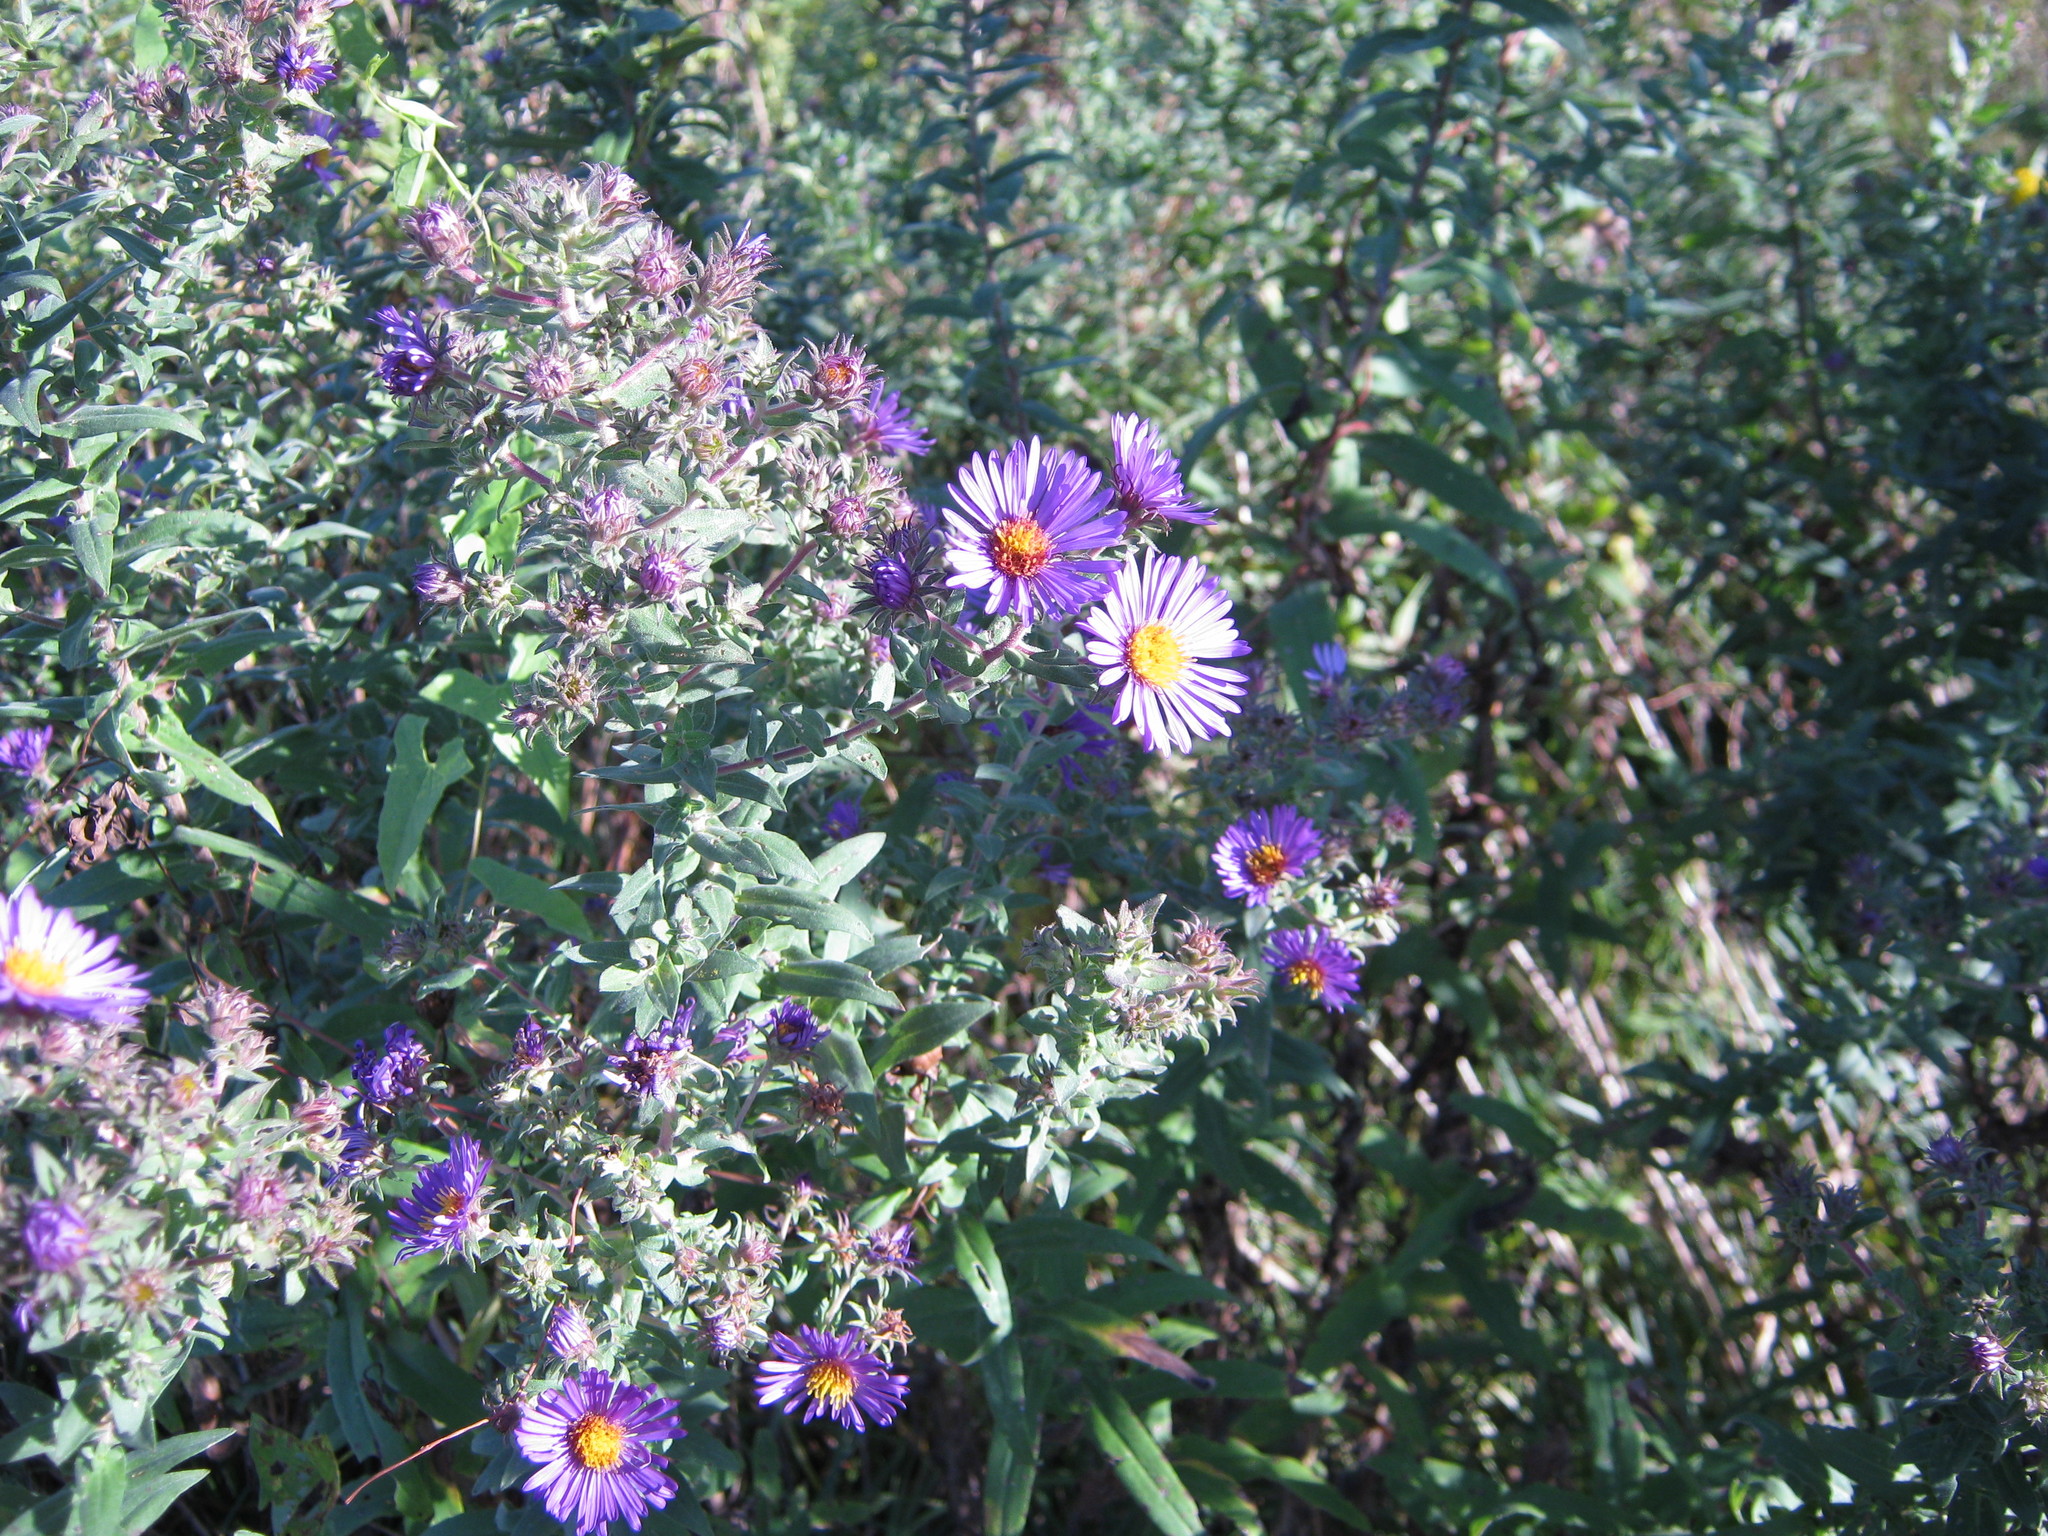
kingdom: Plantae
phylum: Tracheophyta
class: Magnoliopsida
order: Asterales
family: Asteraceae
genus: Symphyotrichum
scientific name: Symphyotrichum novae-angliae
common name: Michaelmas daisy
